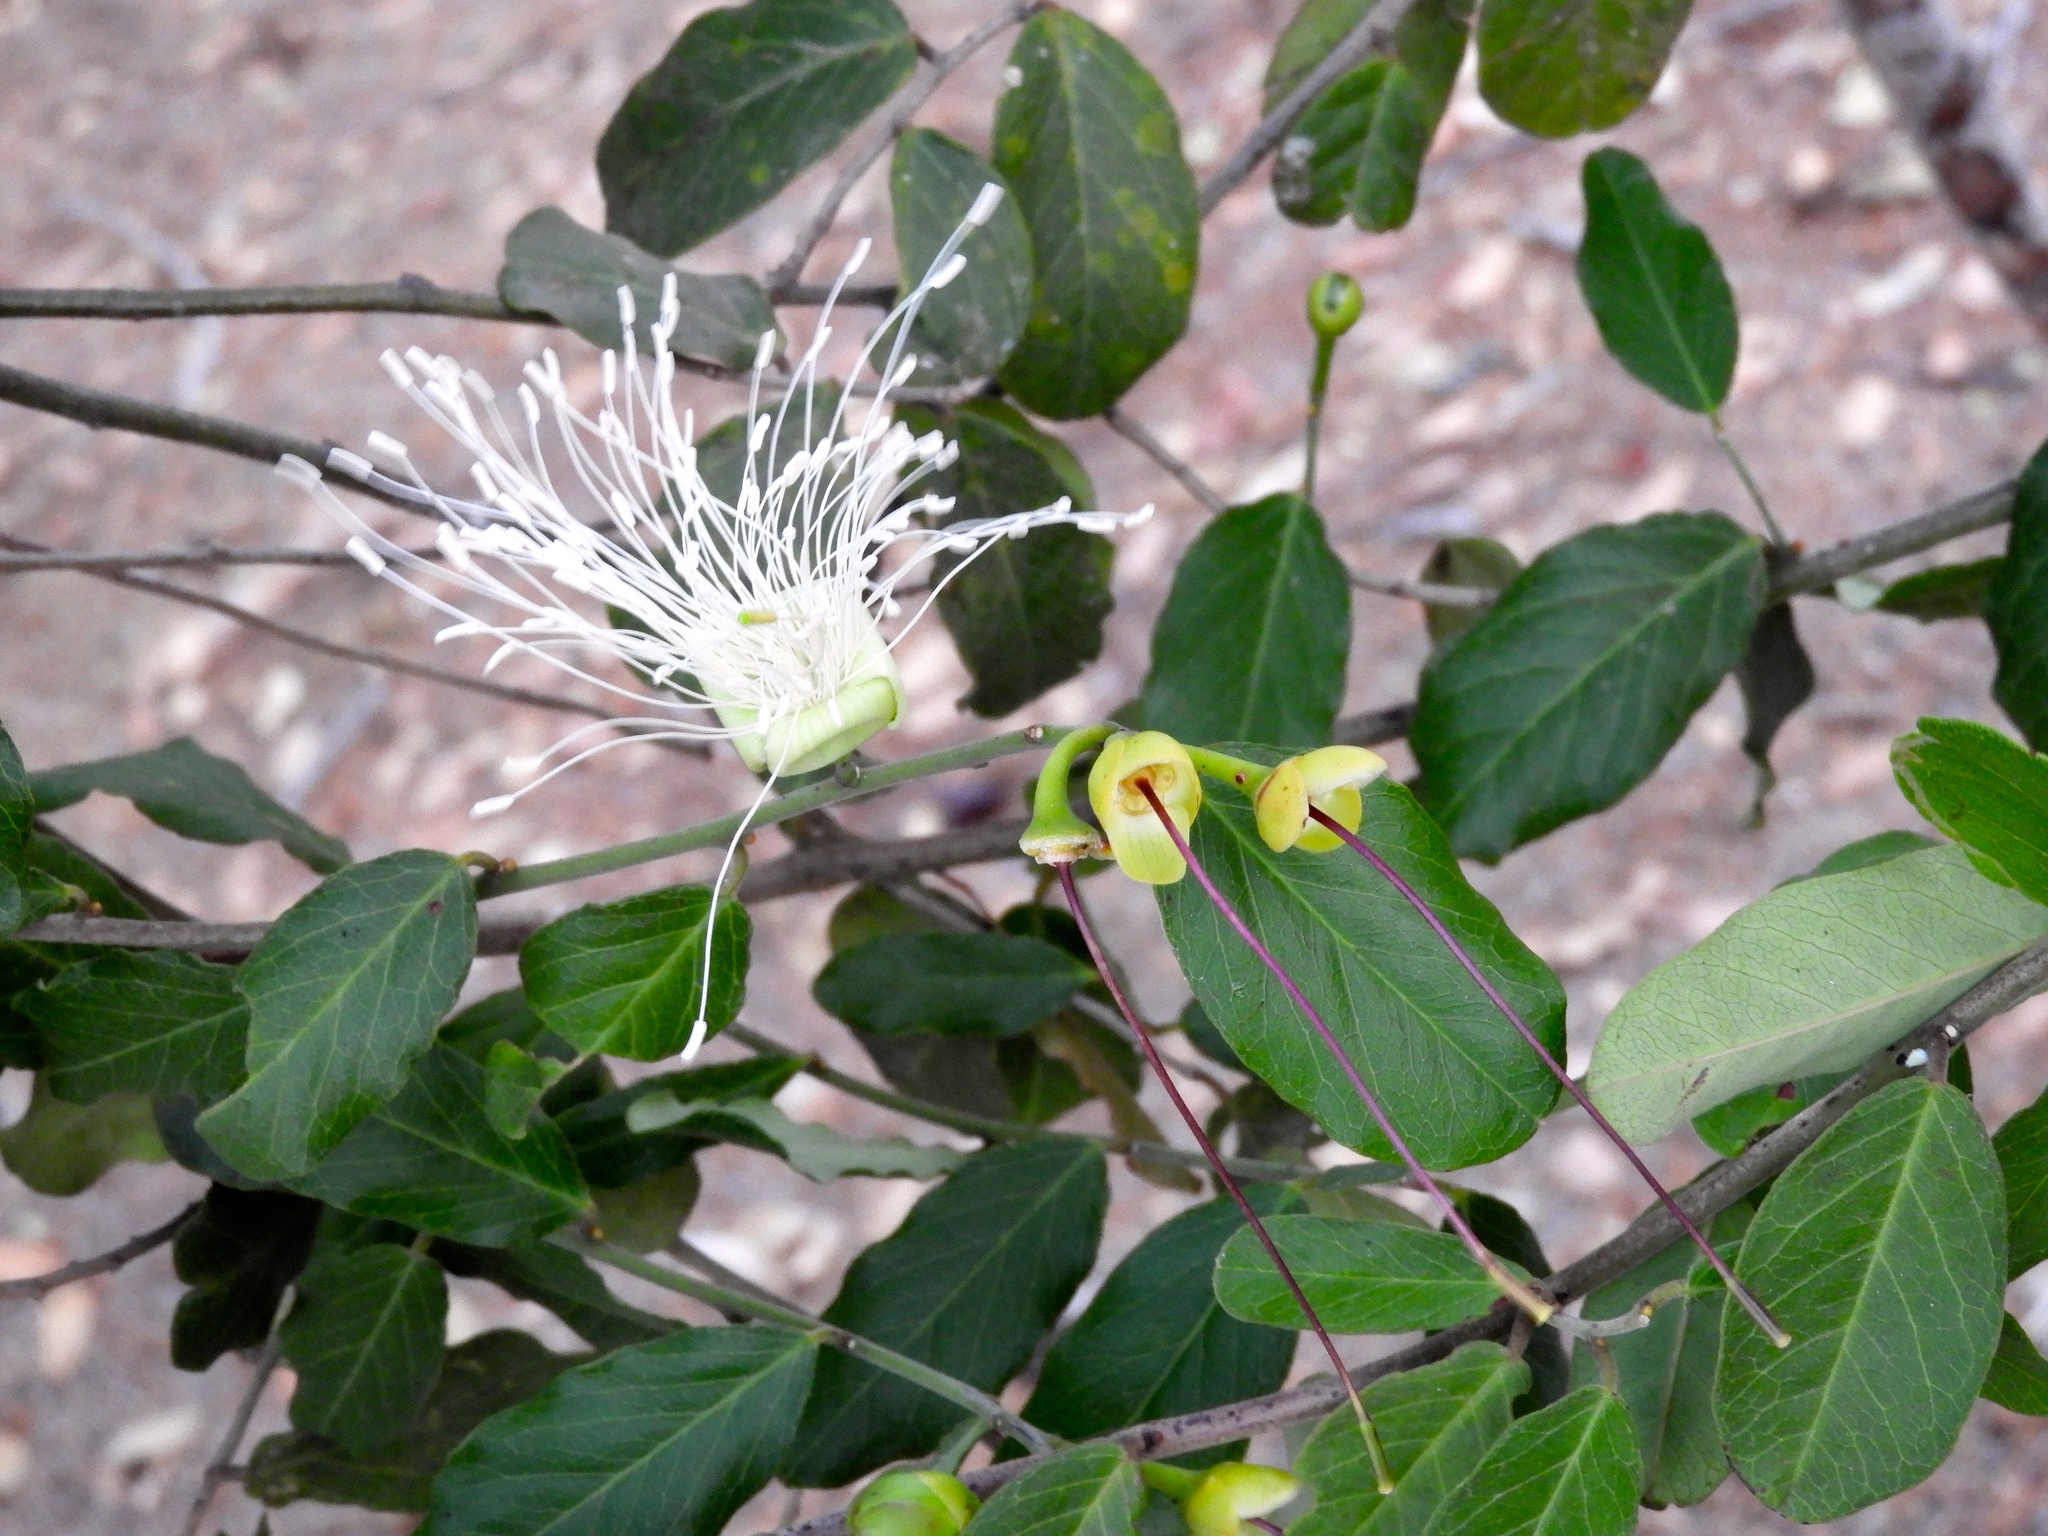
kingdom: Plantae
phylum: Tracheophyta
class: Magnoliopsida
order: Brassicales
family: Capparaceae
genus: Cynophalla
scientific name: Cynophalla flexuosa
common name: Capertree
